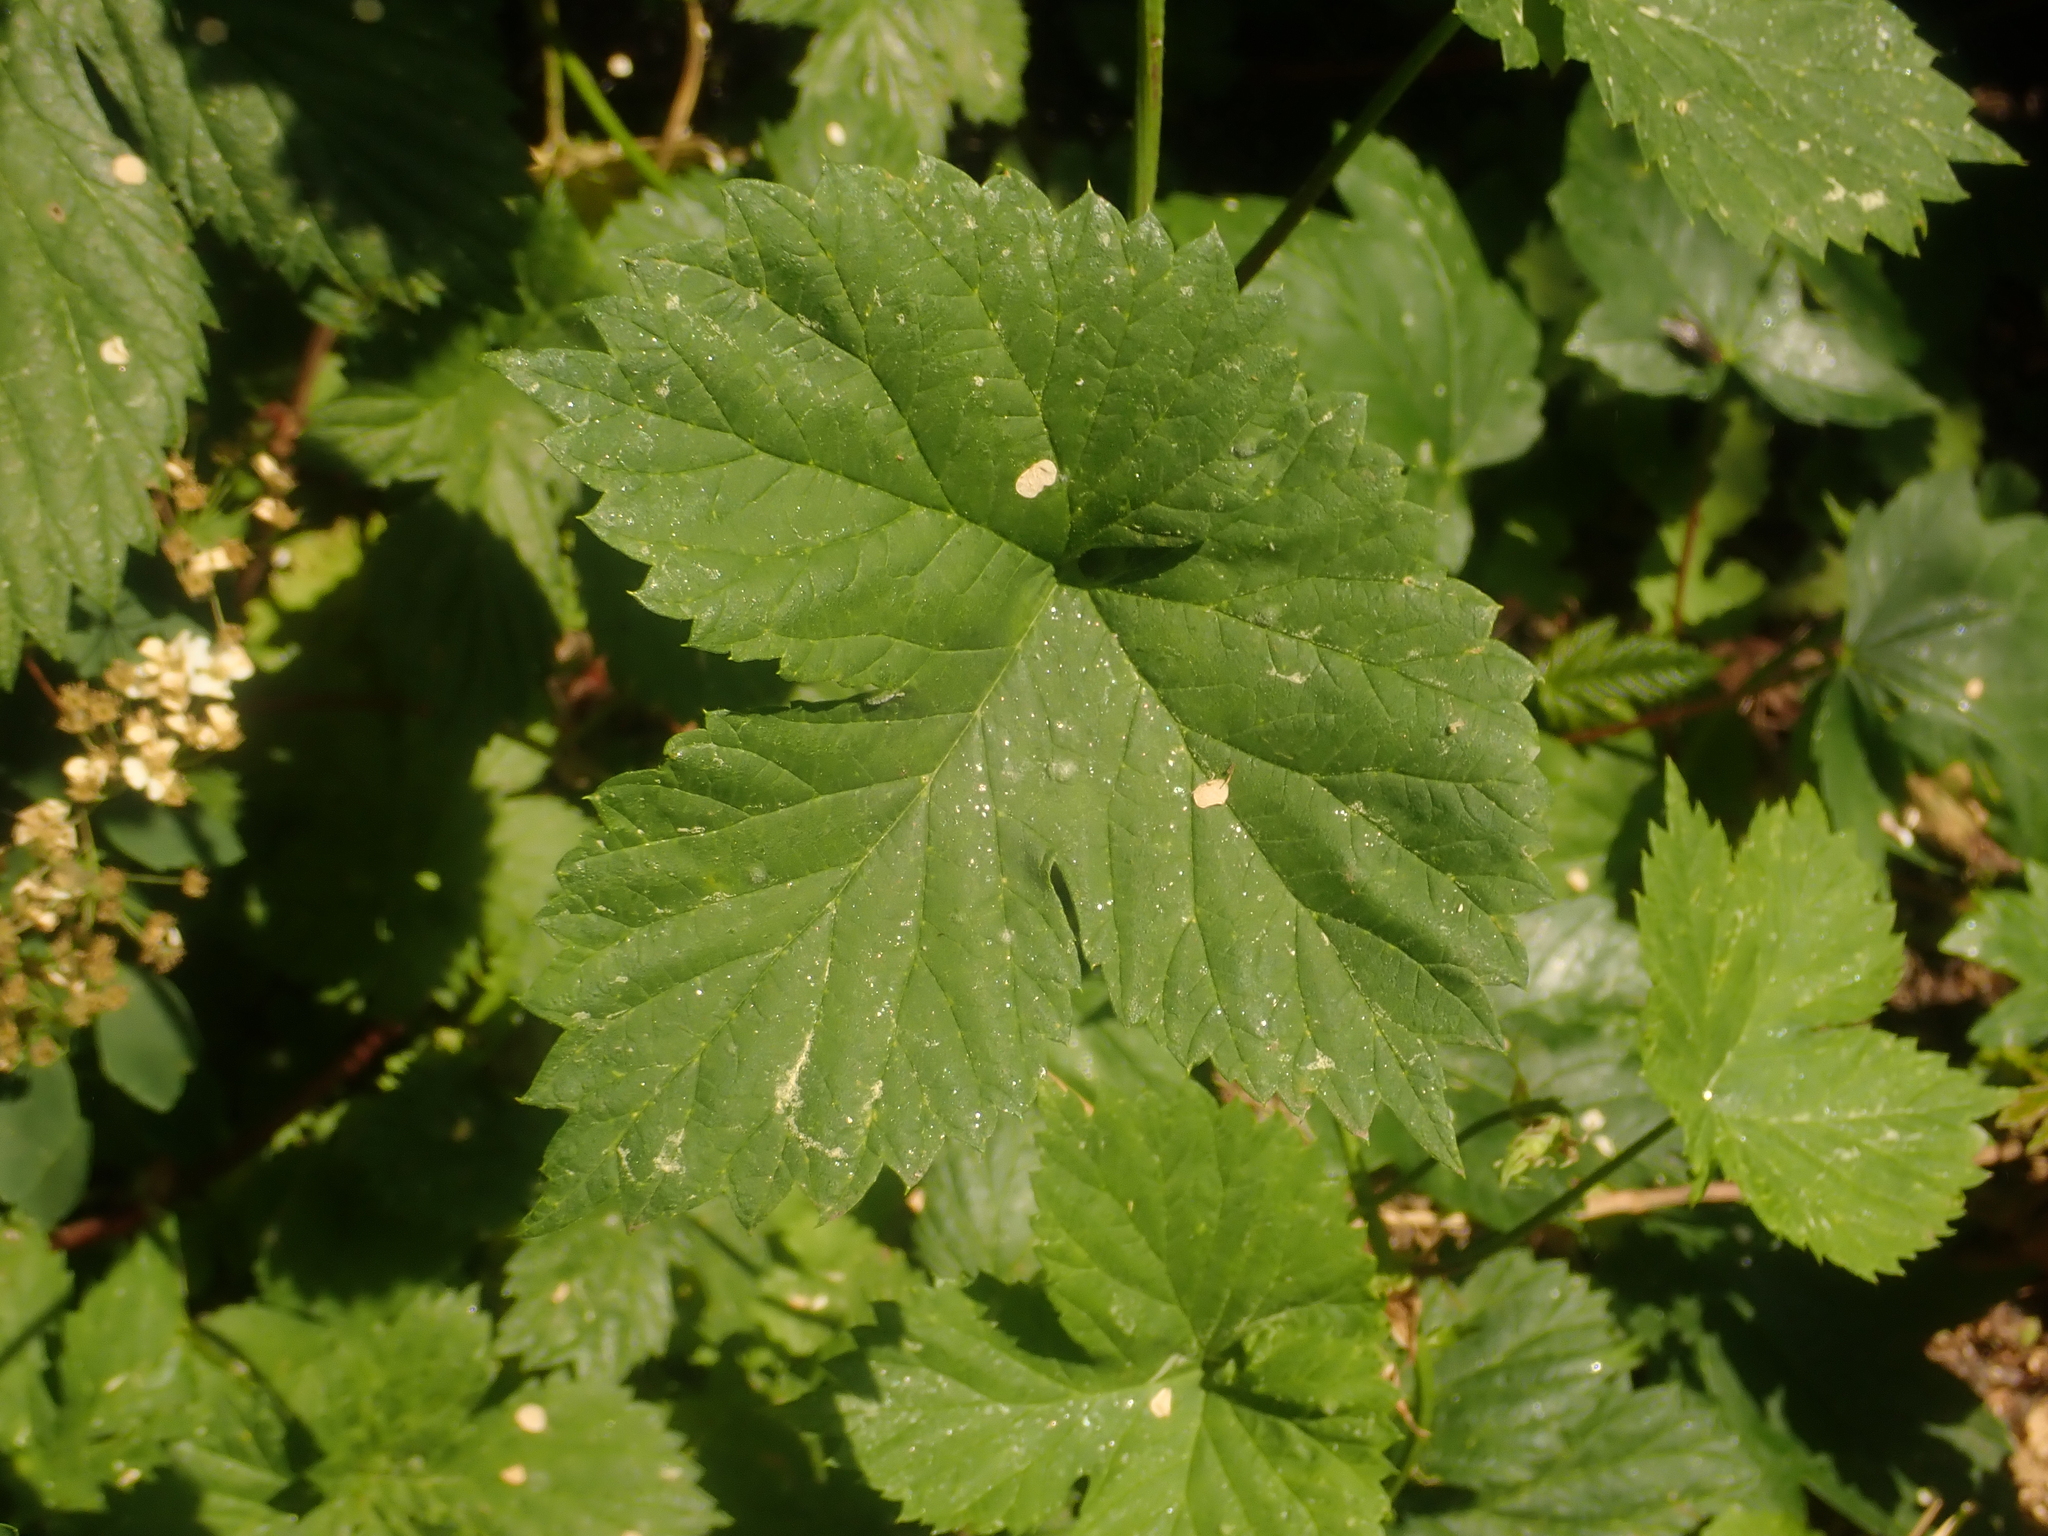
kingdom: Plantae
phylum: Tracheophyta
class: Magnoliopsida
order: Rosales
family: Cannabaceae
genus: Humulus
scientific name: Humulus lupulus
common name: Hop
